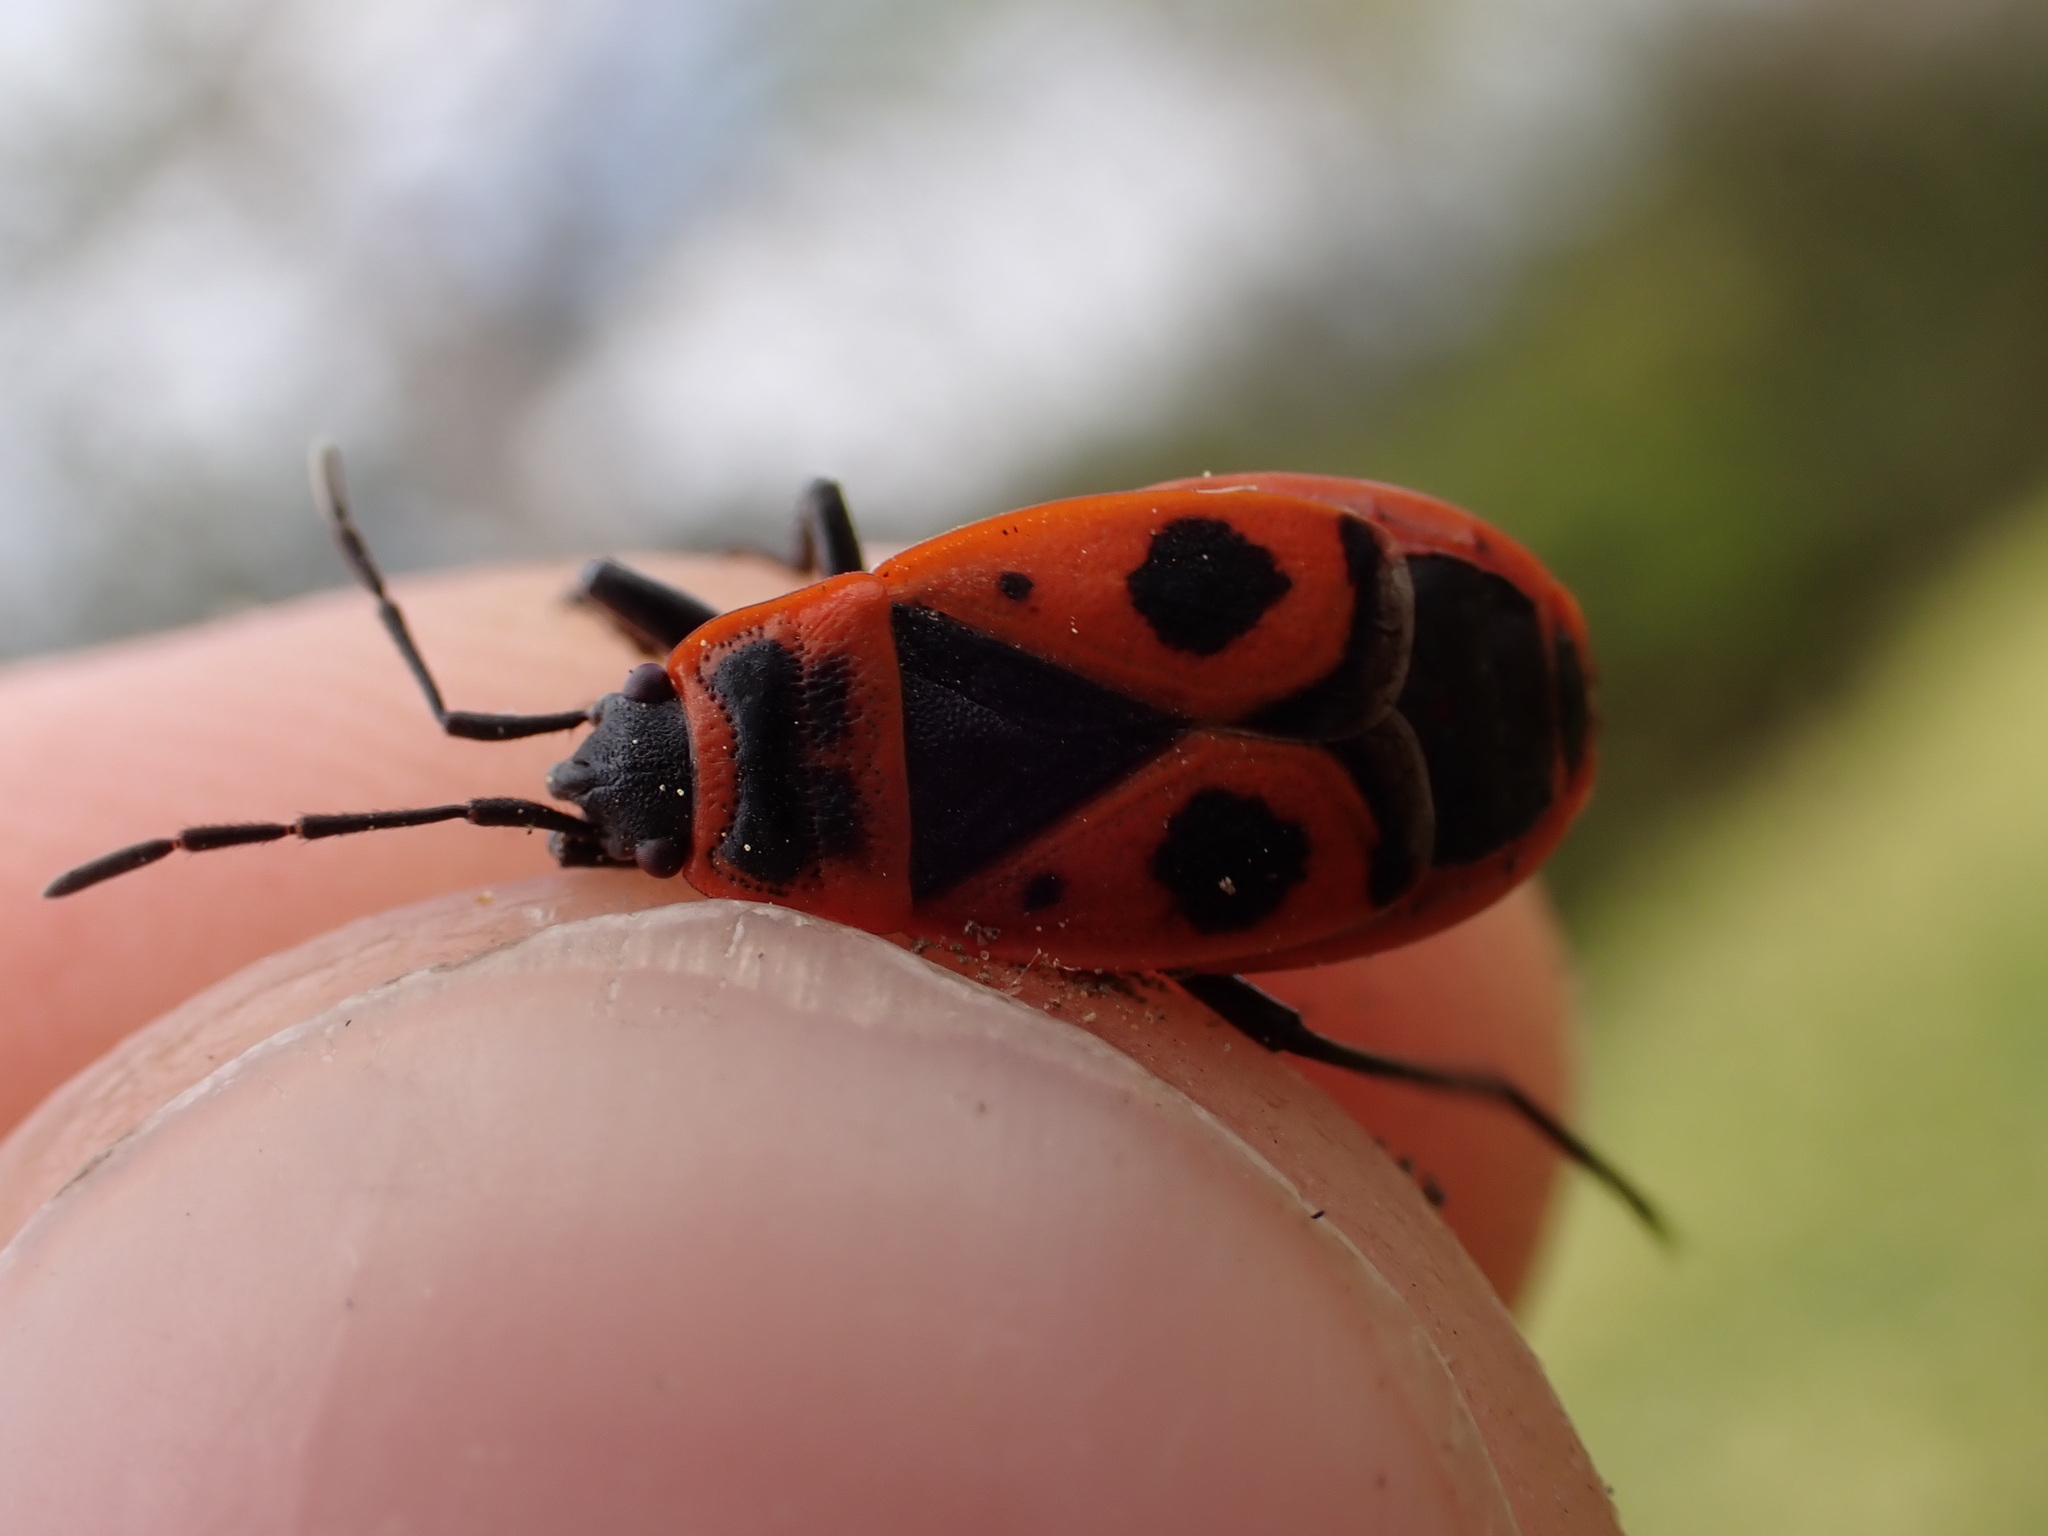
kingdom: Animalia
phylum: Arthropoda
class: Insecta
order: Hemiptera
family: Pyrrhocoridae
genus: Pyrrhocoris
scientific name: Pyrrhocoris apterus
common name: Firebug
